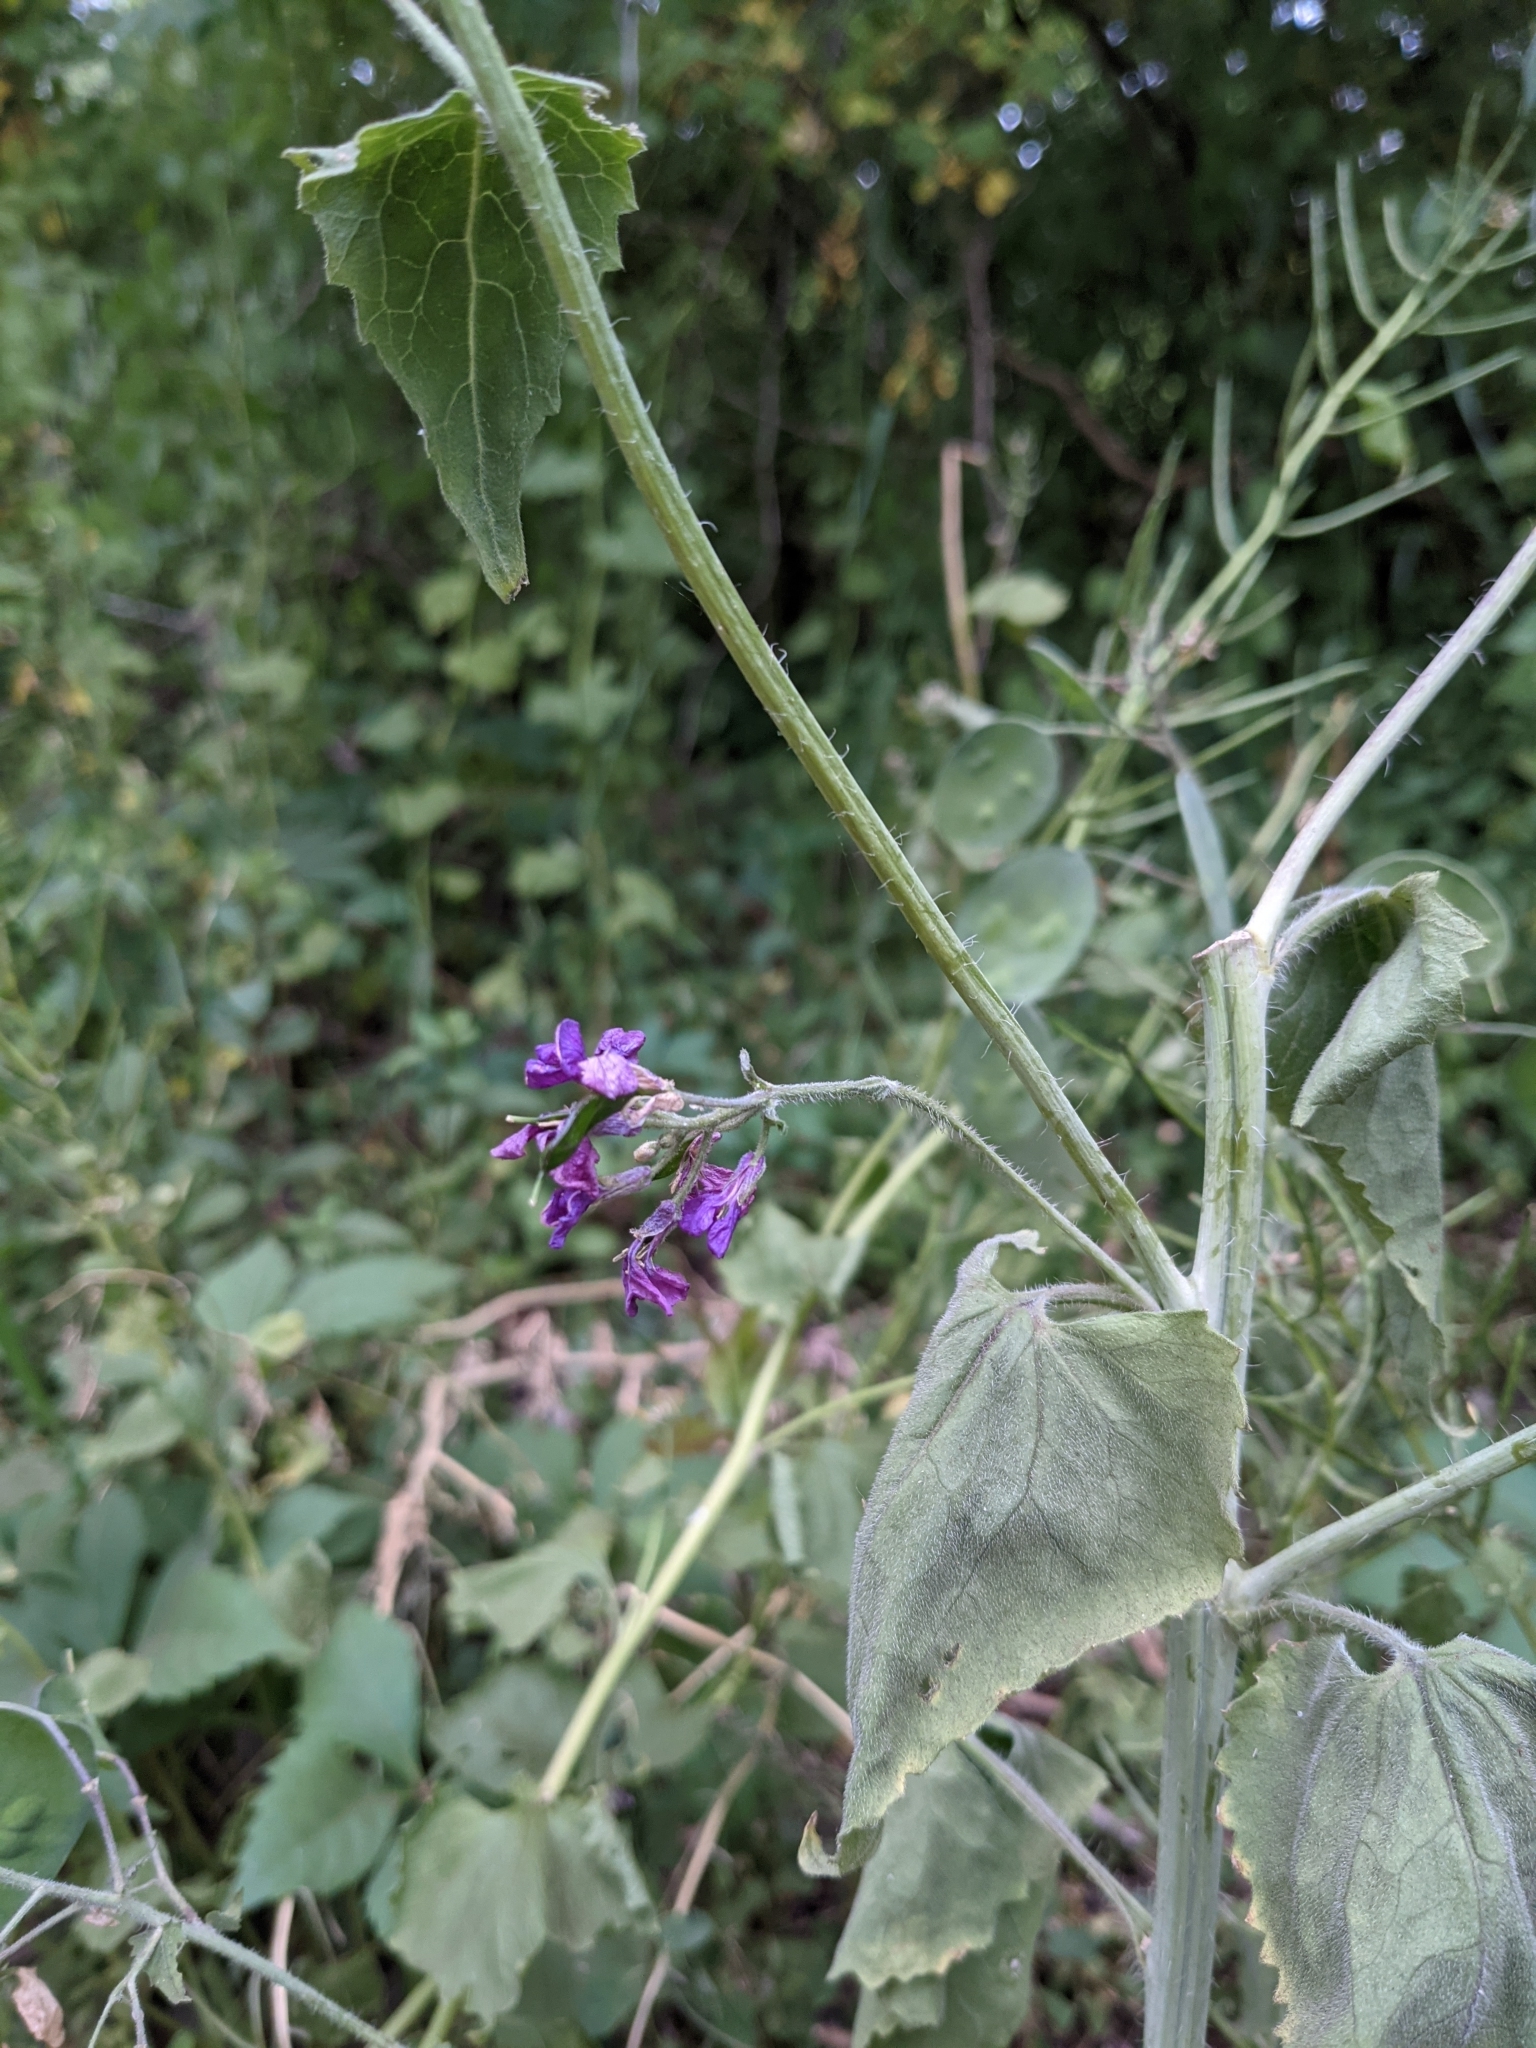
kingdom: Plantae
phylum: Tracheophyta
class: Magnoliopsida
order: Brassicales
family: Brassicaceae
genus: Lunaria
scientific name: Lunaria annua
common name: Honesty
